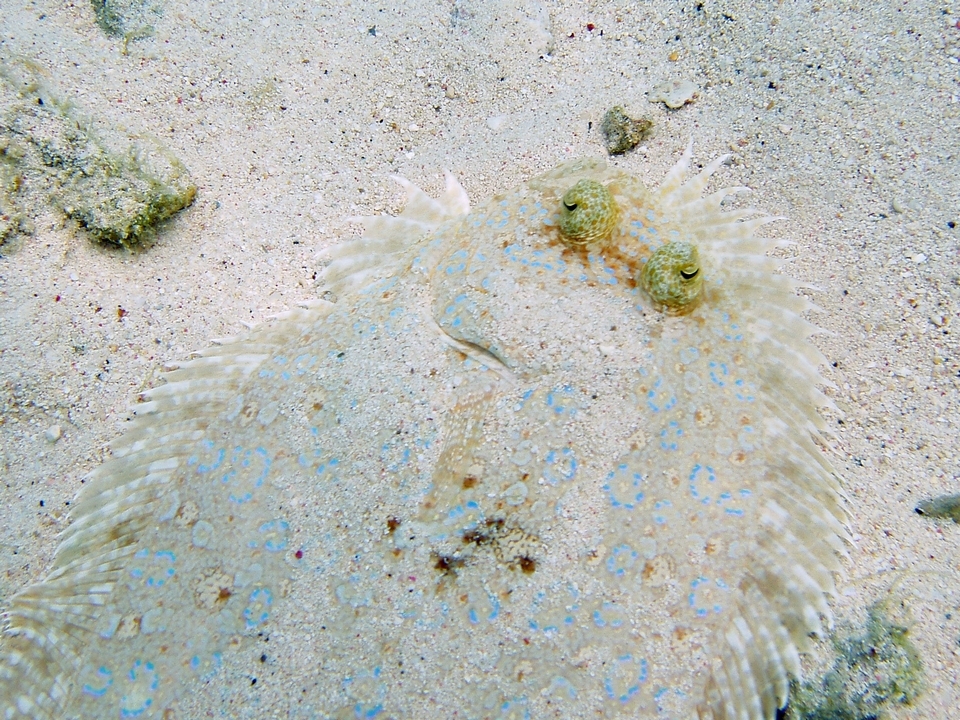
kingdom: Animalia
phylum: Chordata
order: Pleuronectiformes
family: Bothidae
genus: Bothus
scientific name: Bothus maculiferus
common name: Mottled flounder
